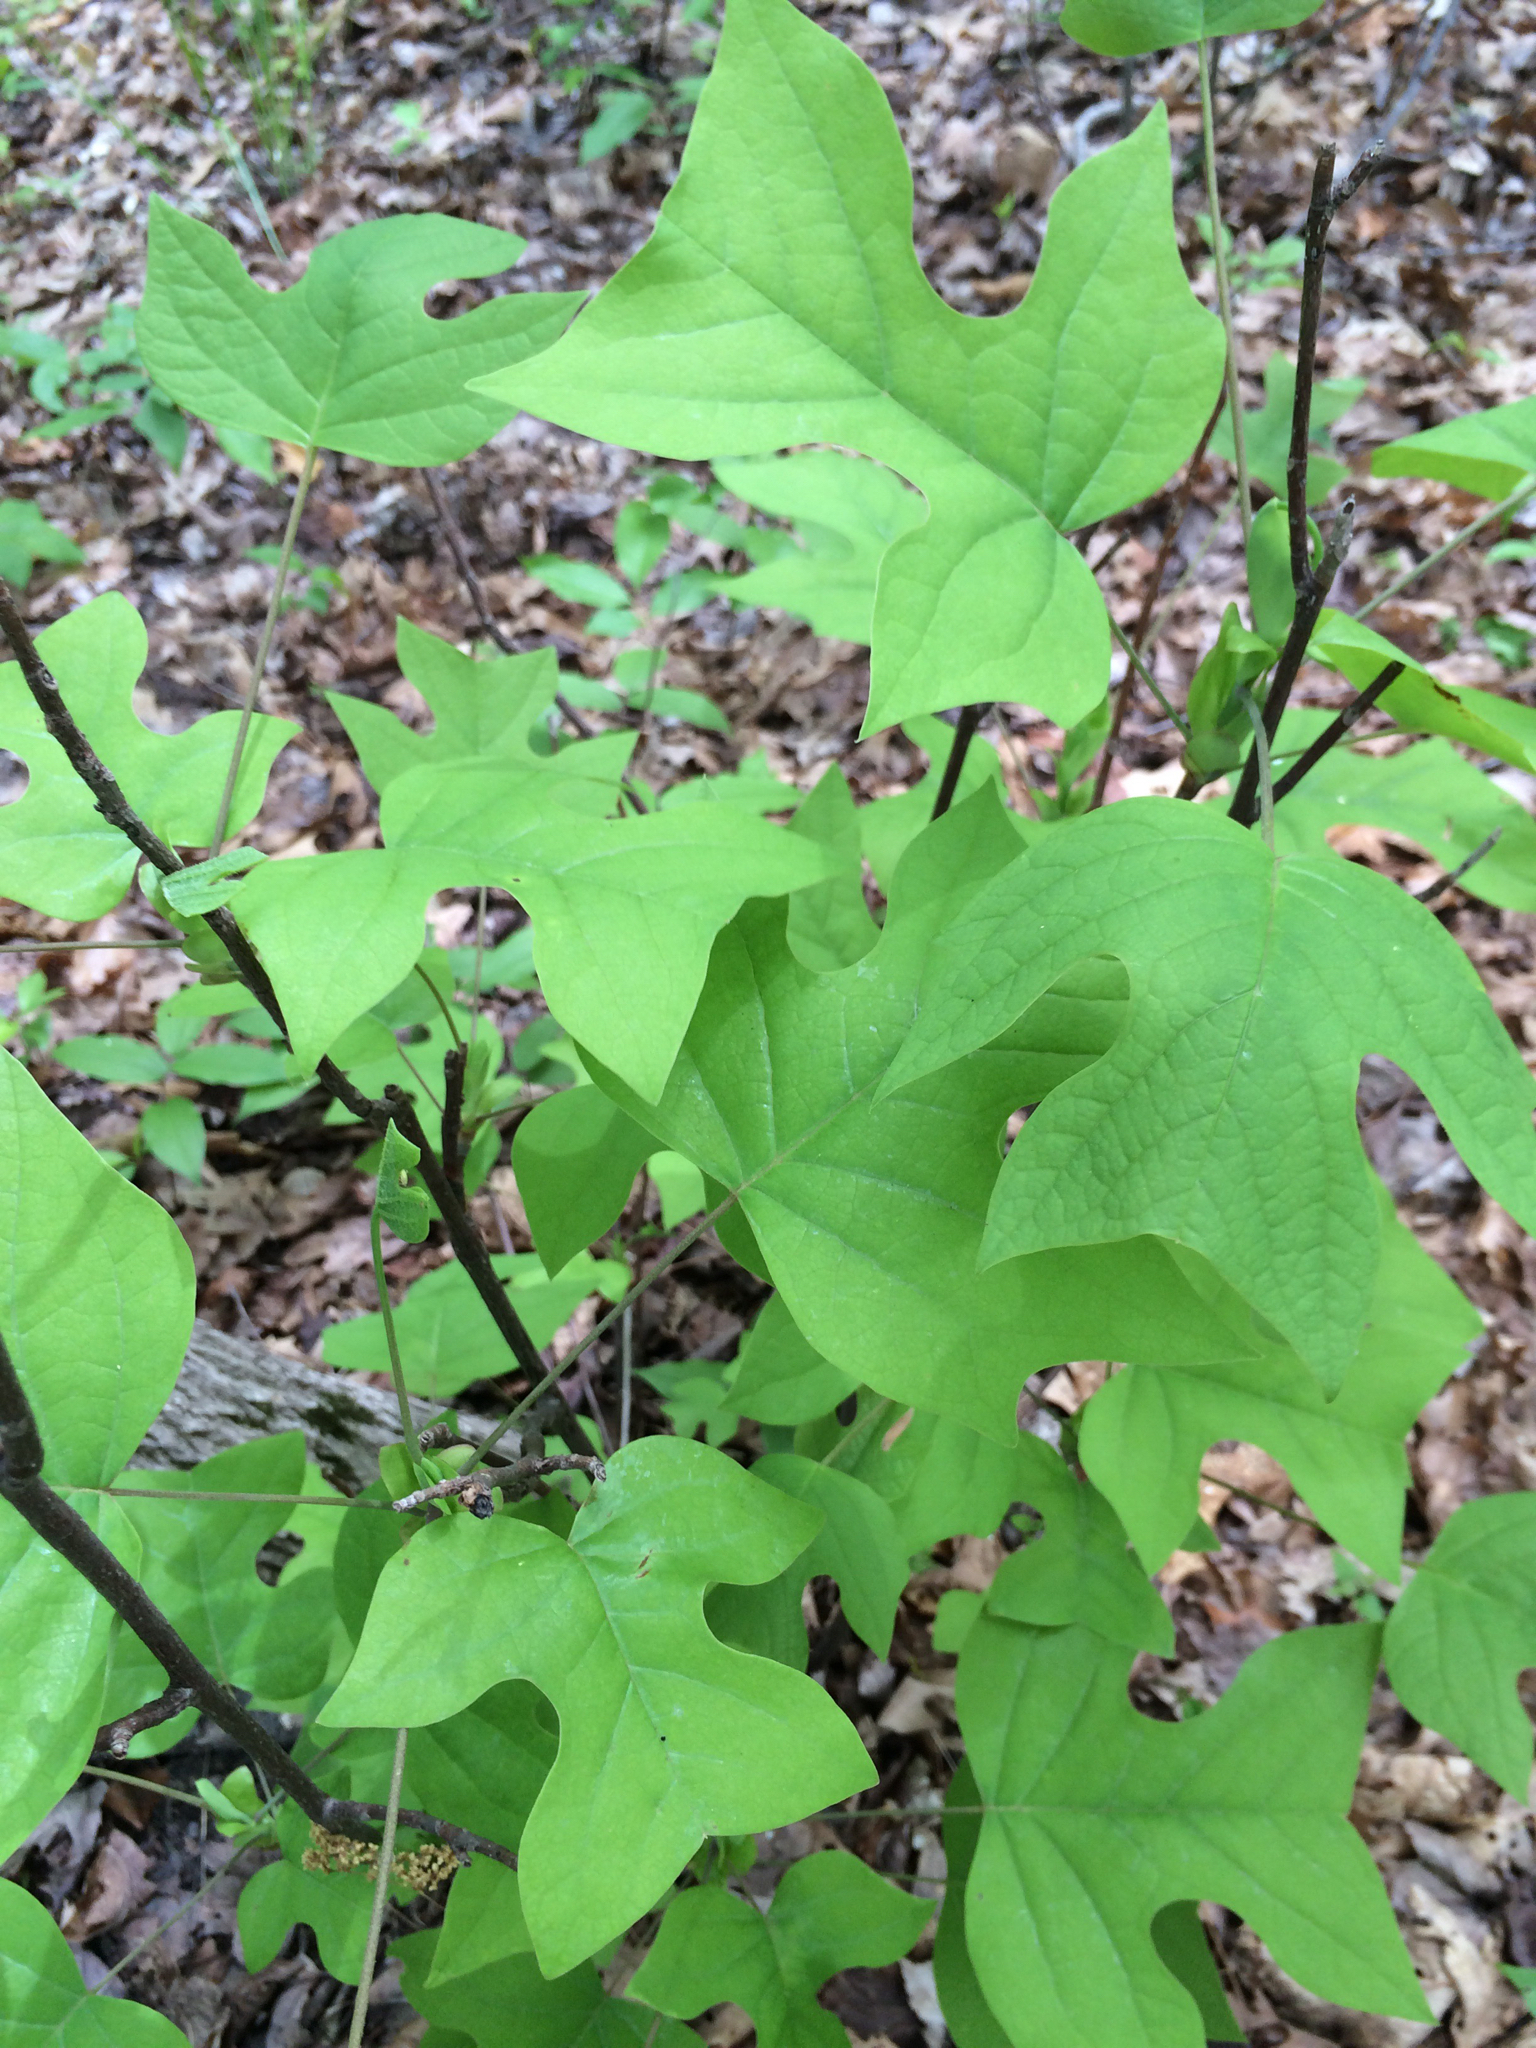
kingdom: Plantae
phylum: Tracheophyta
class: Magnoliopsida
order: Magnoliales
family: Magnoliaceae
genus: Liriodendron
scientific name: Liriodendron tulipifera
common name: Tulip tree
